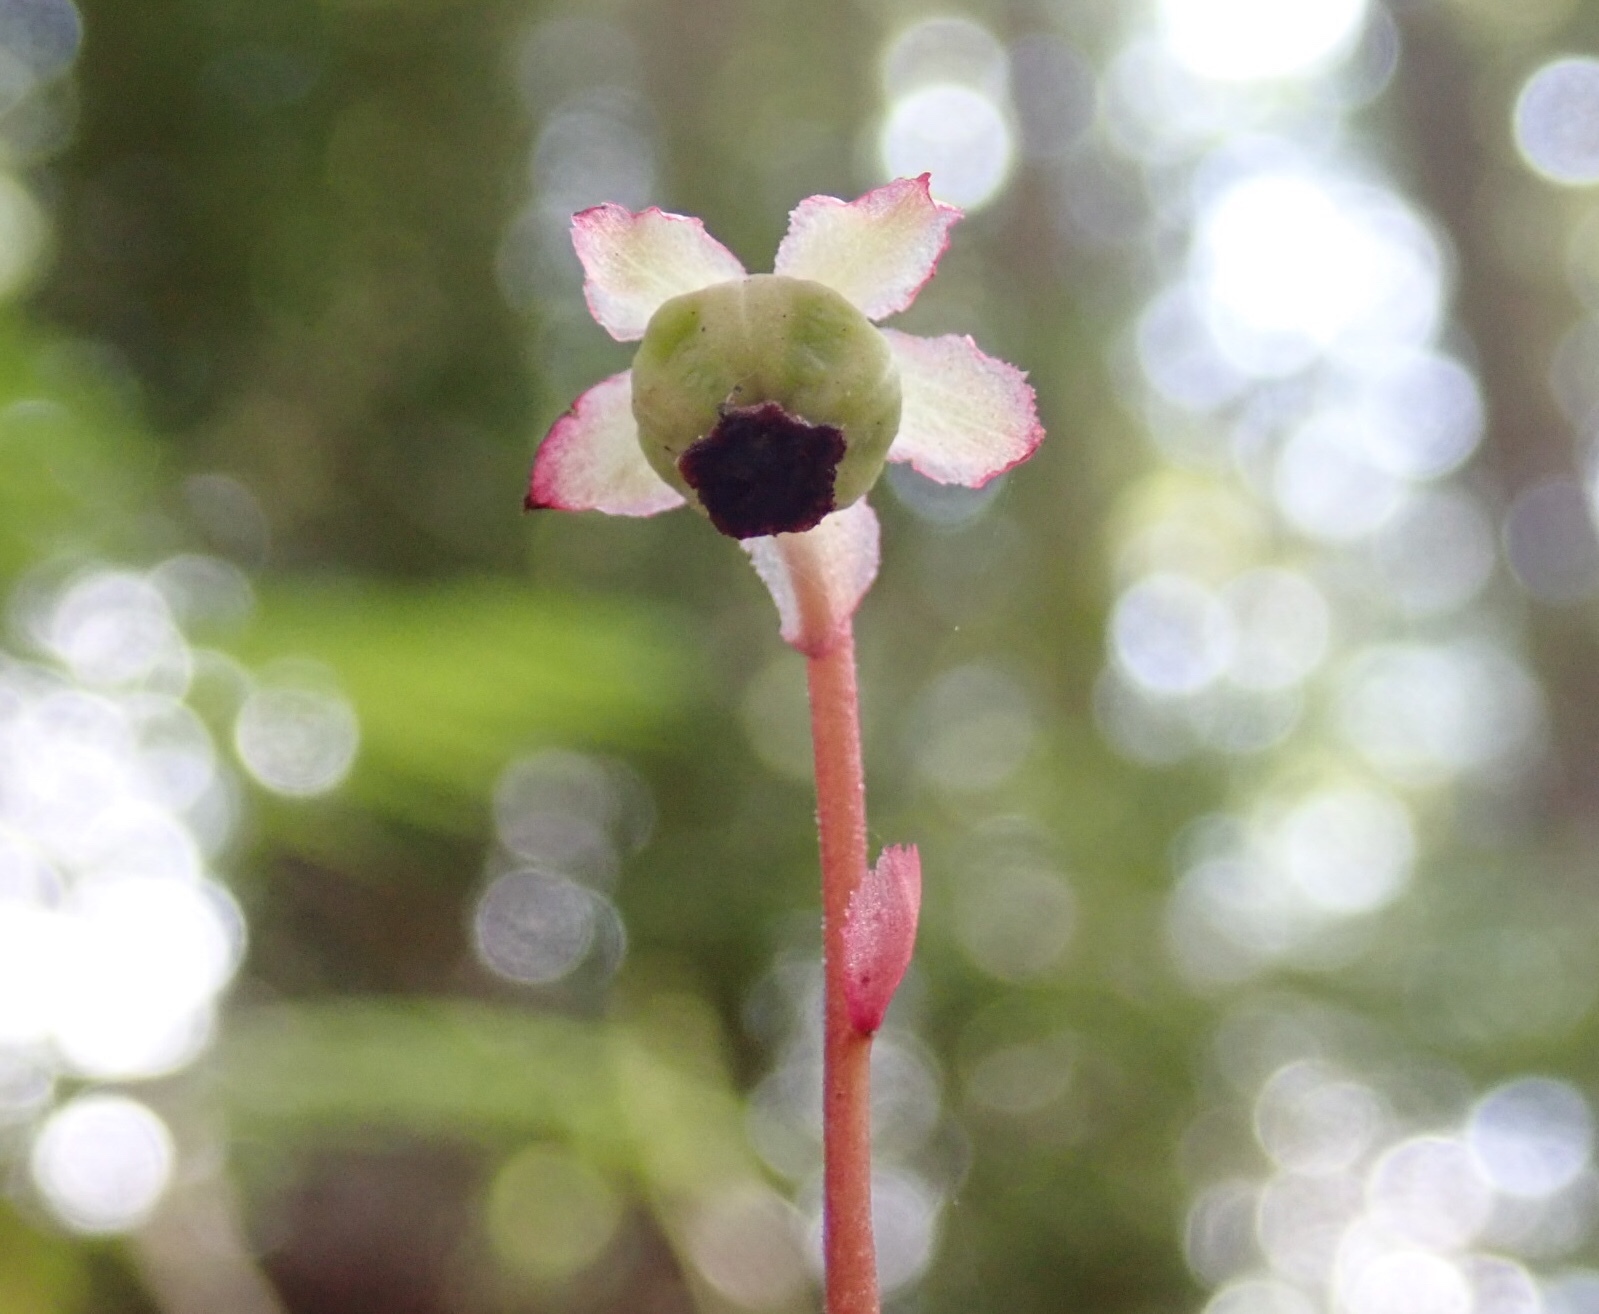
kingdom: Plantae
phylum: Tracheophyta
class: Magnoliopsida
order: Ericales
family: Ericaceae
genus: Chimaphila
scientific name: Chimaphila menziesii
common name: Menzies' pipsissewa
